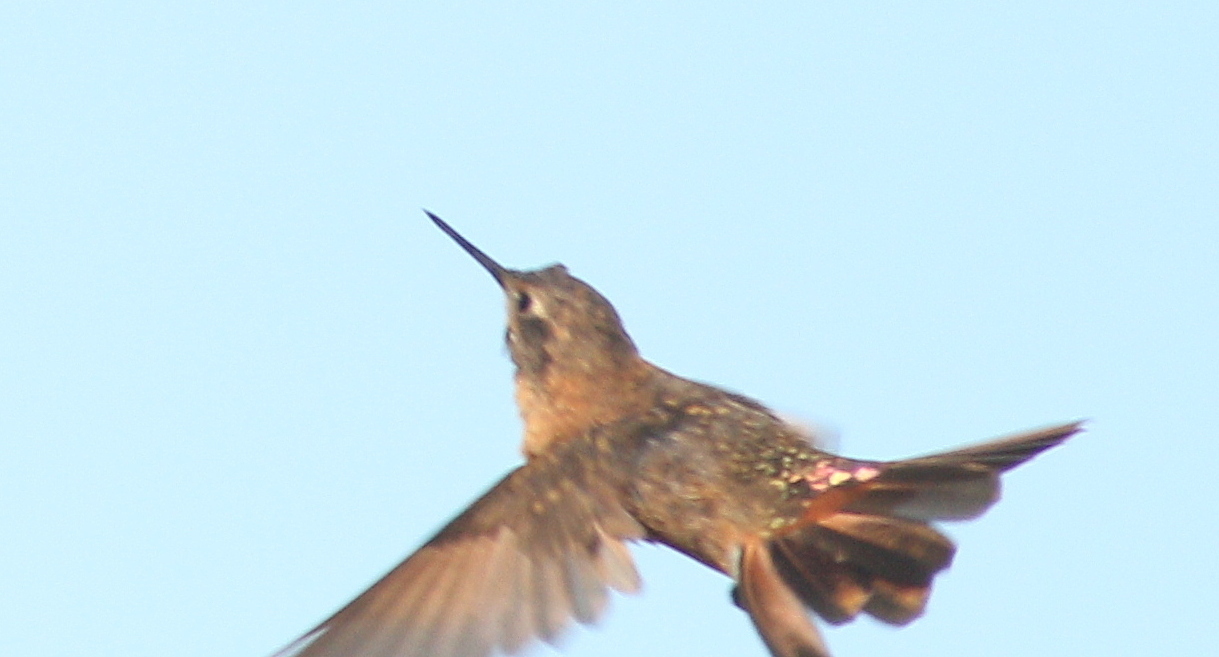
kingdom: Animalia
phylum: Chordata
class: Aves
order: Apodiformes
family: Trochilidae
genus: Aglaeactis
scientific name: Aglaeactis cupripennis
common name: Shining sunbeam
